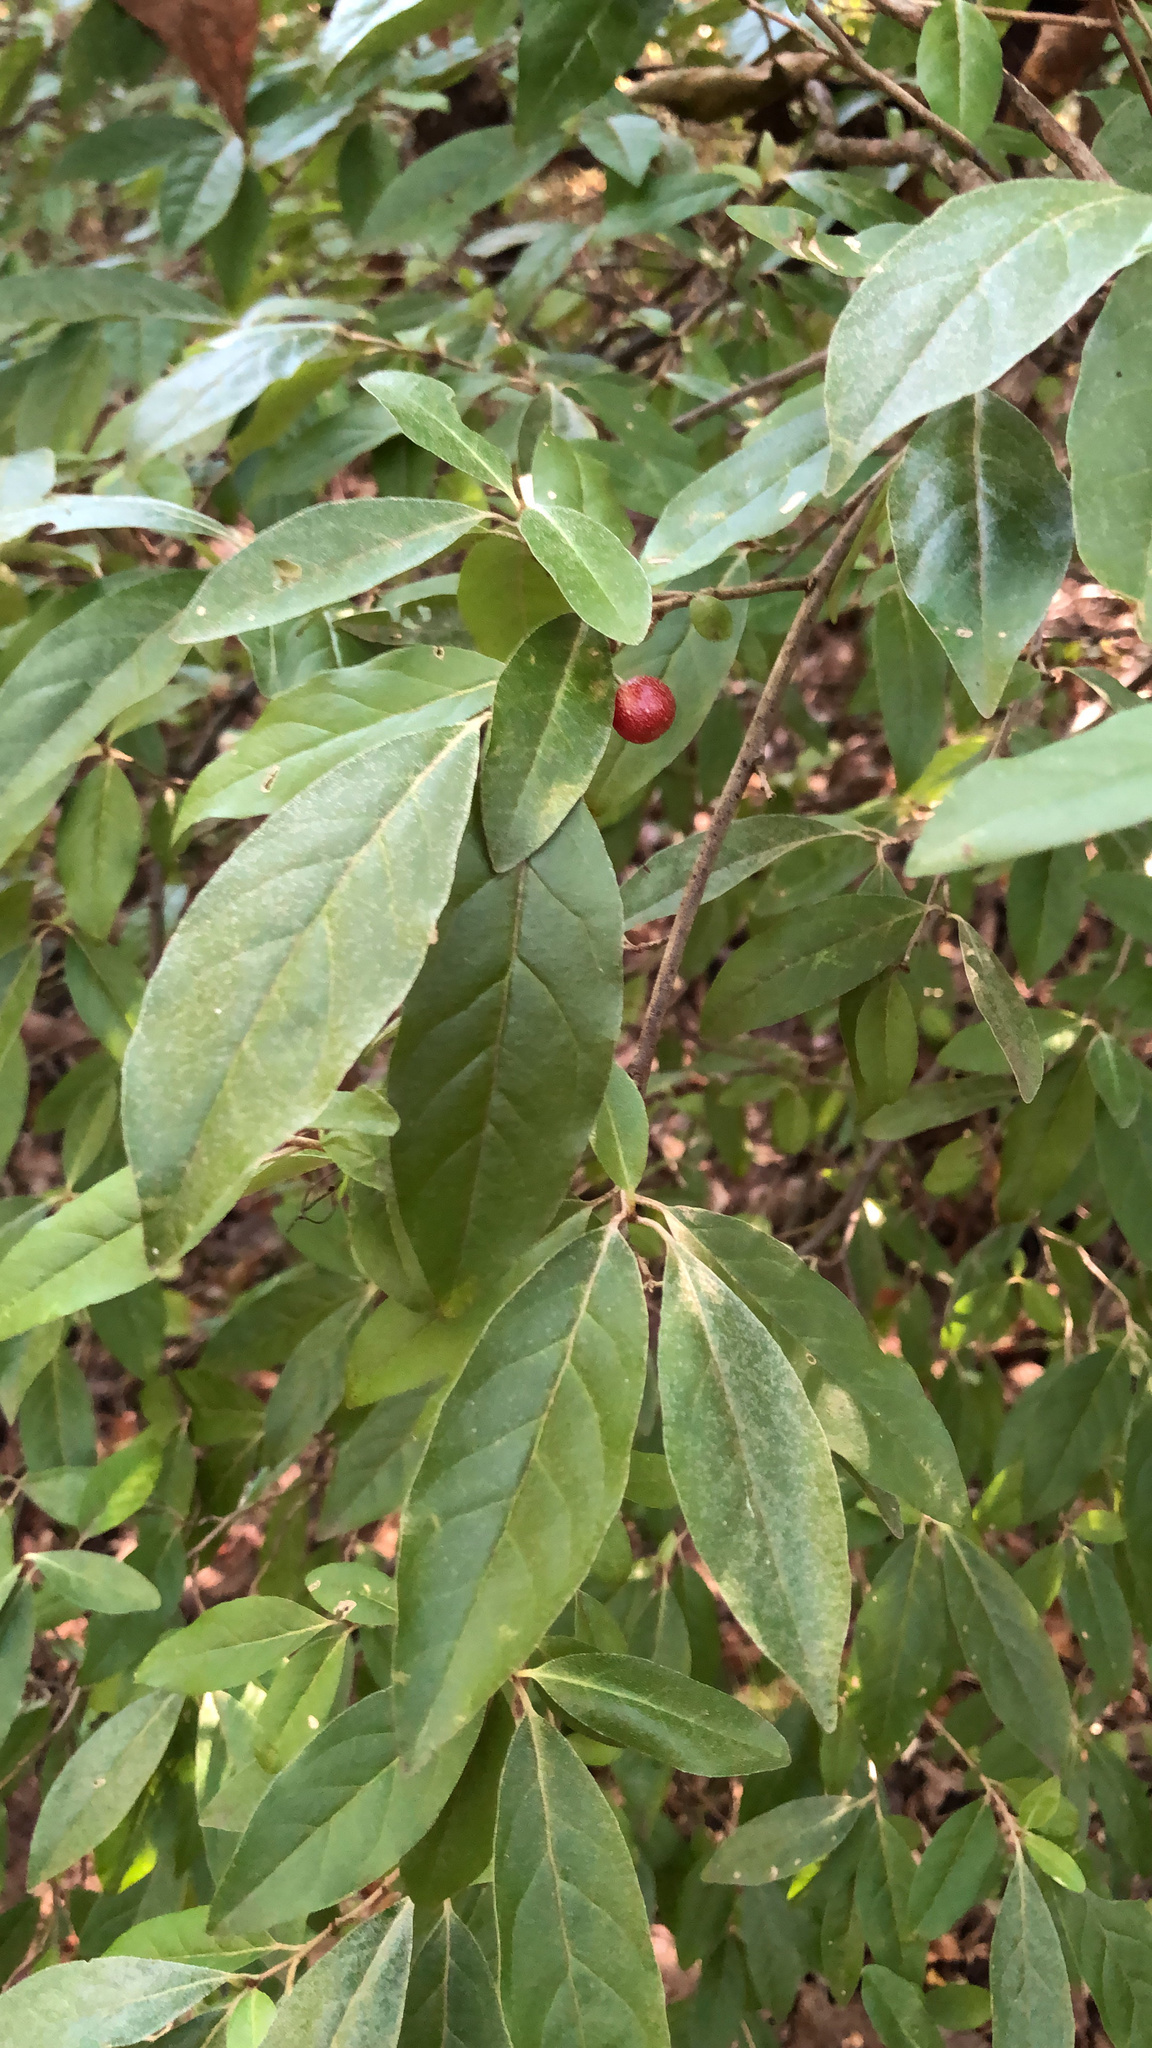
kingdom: Plantae
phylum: Tracheophyta
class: Magnoliopsida
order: Rosales
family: Elaeagnaceae
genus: Elaeagnus
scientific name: Elaeagnus umbellata
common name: Autumn olive
